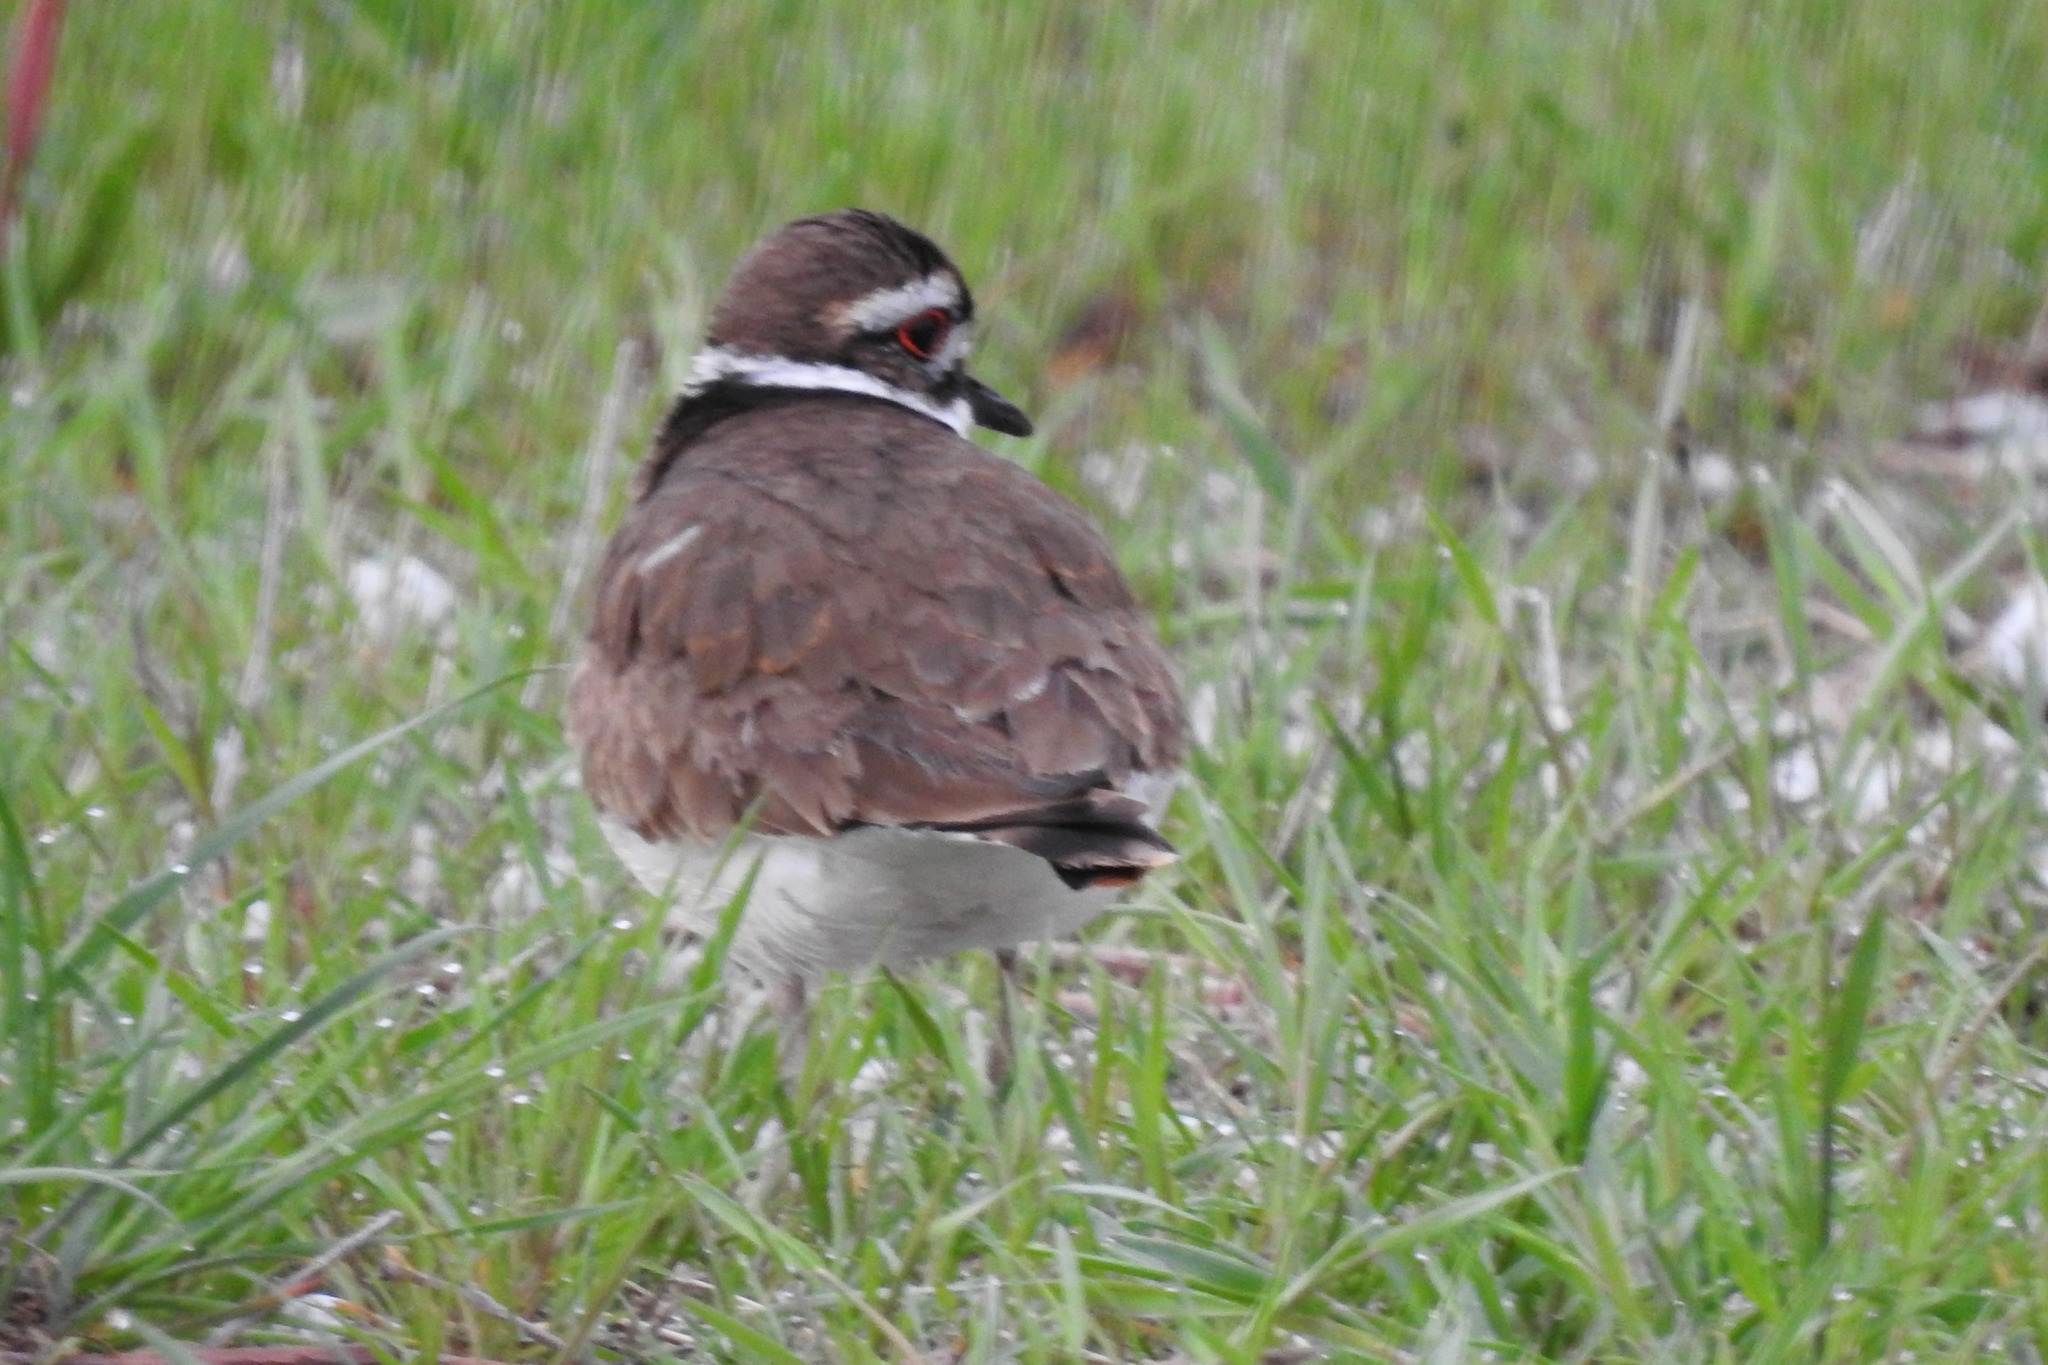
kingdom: Animalia
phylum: Chordata
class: Aves
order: Charadriiformes
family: Charadriidae
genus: Charadrius
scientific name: Charadrius vociferus
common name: Killdeer
